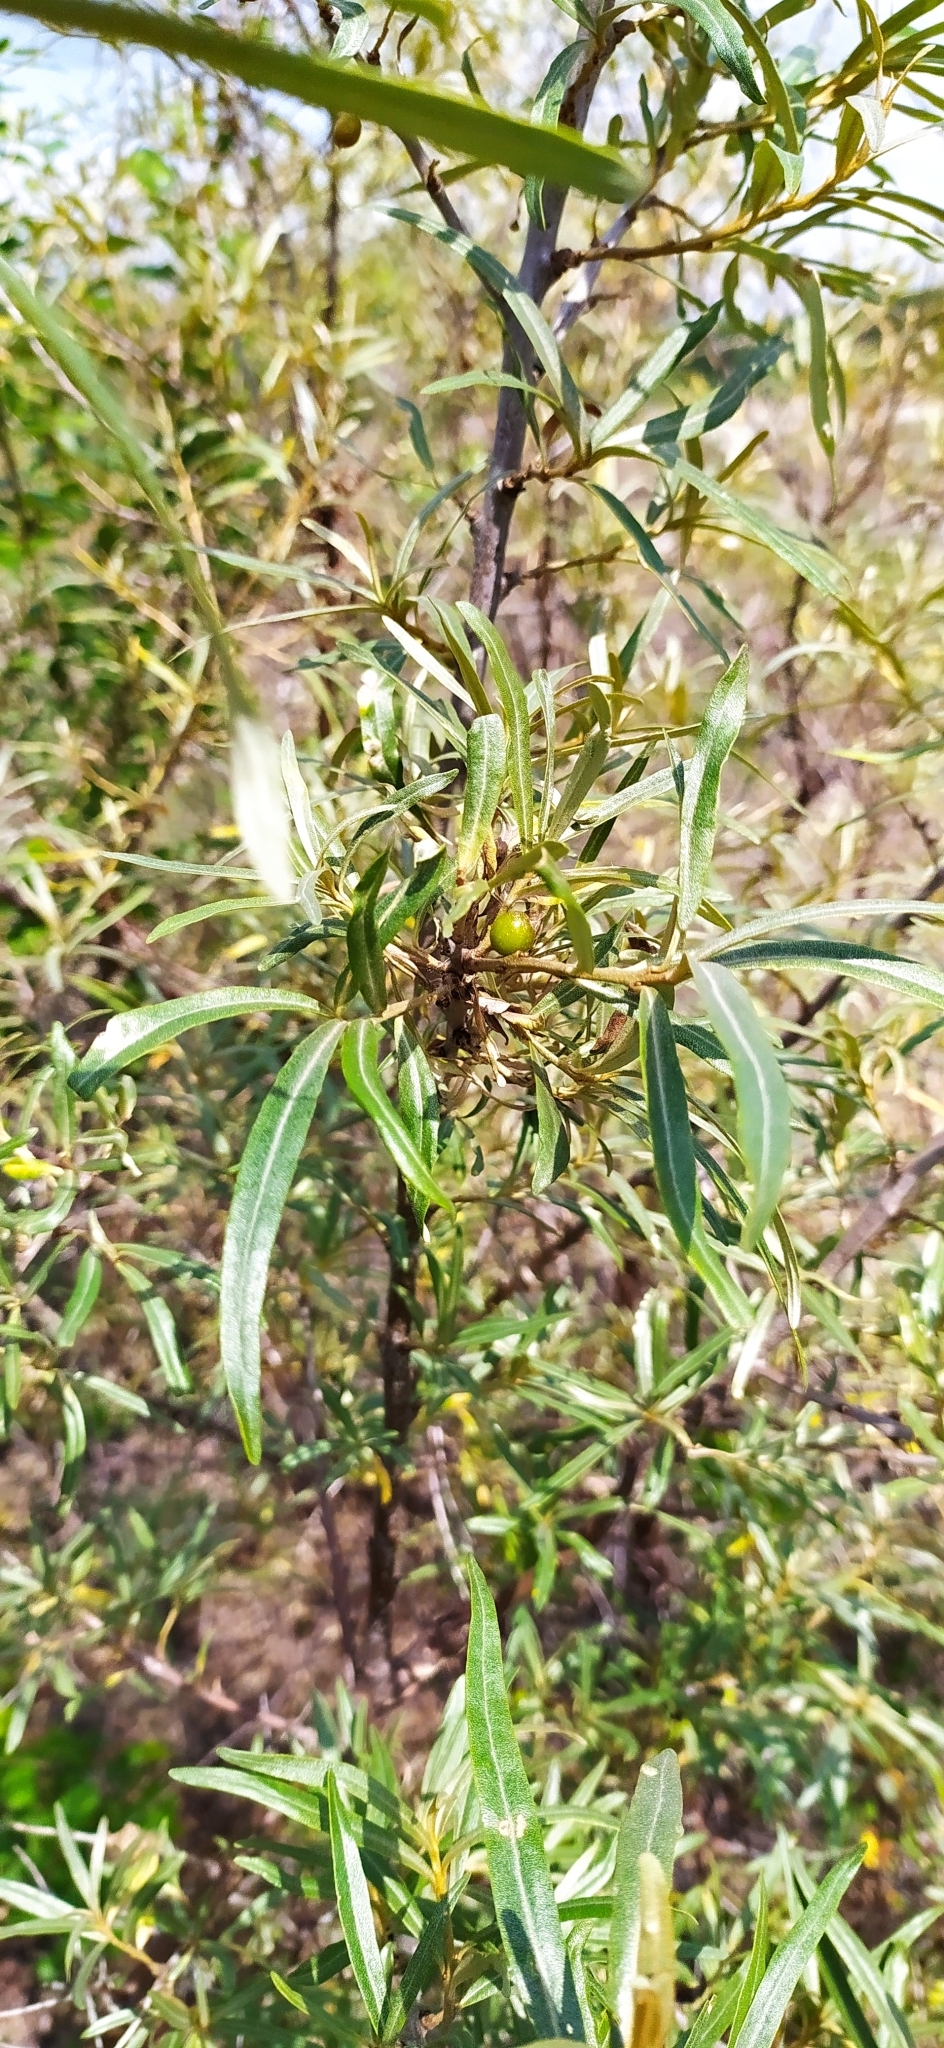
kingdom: Plantae
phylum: Tracheophyta
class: Magnoliopsida
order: Rosales
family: Elaeagnaceae
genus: Hippophae
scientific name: Hippophae rhamnoides
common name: Sea-buckthorn
